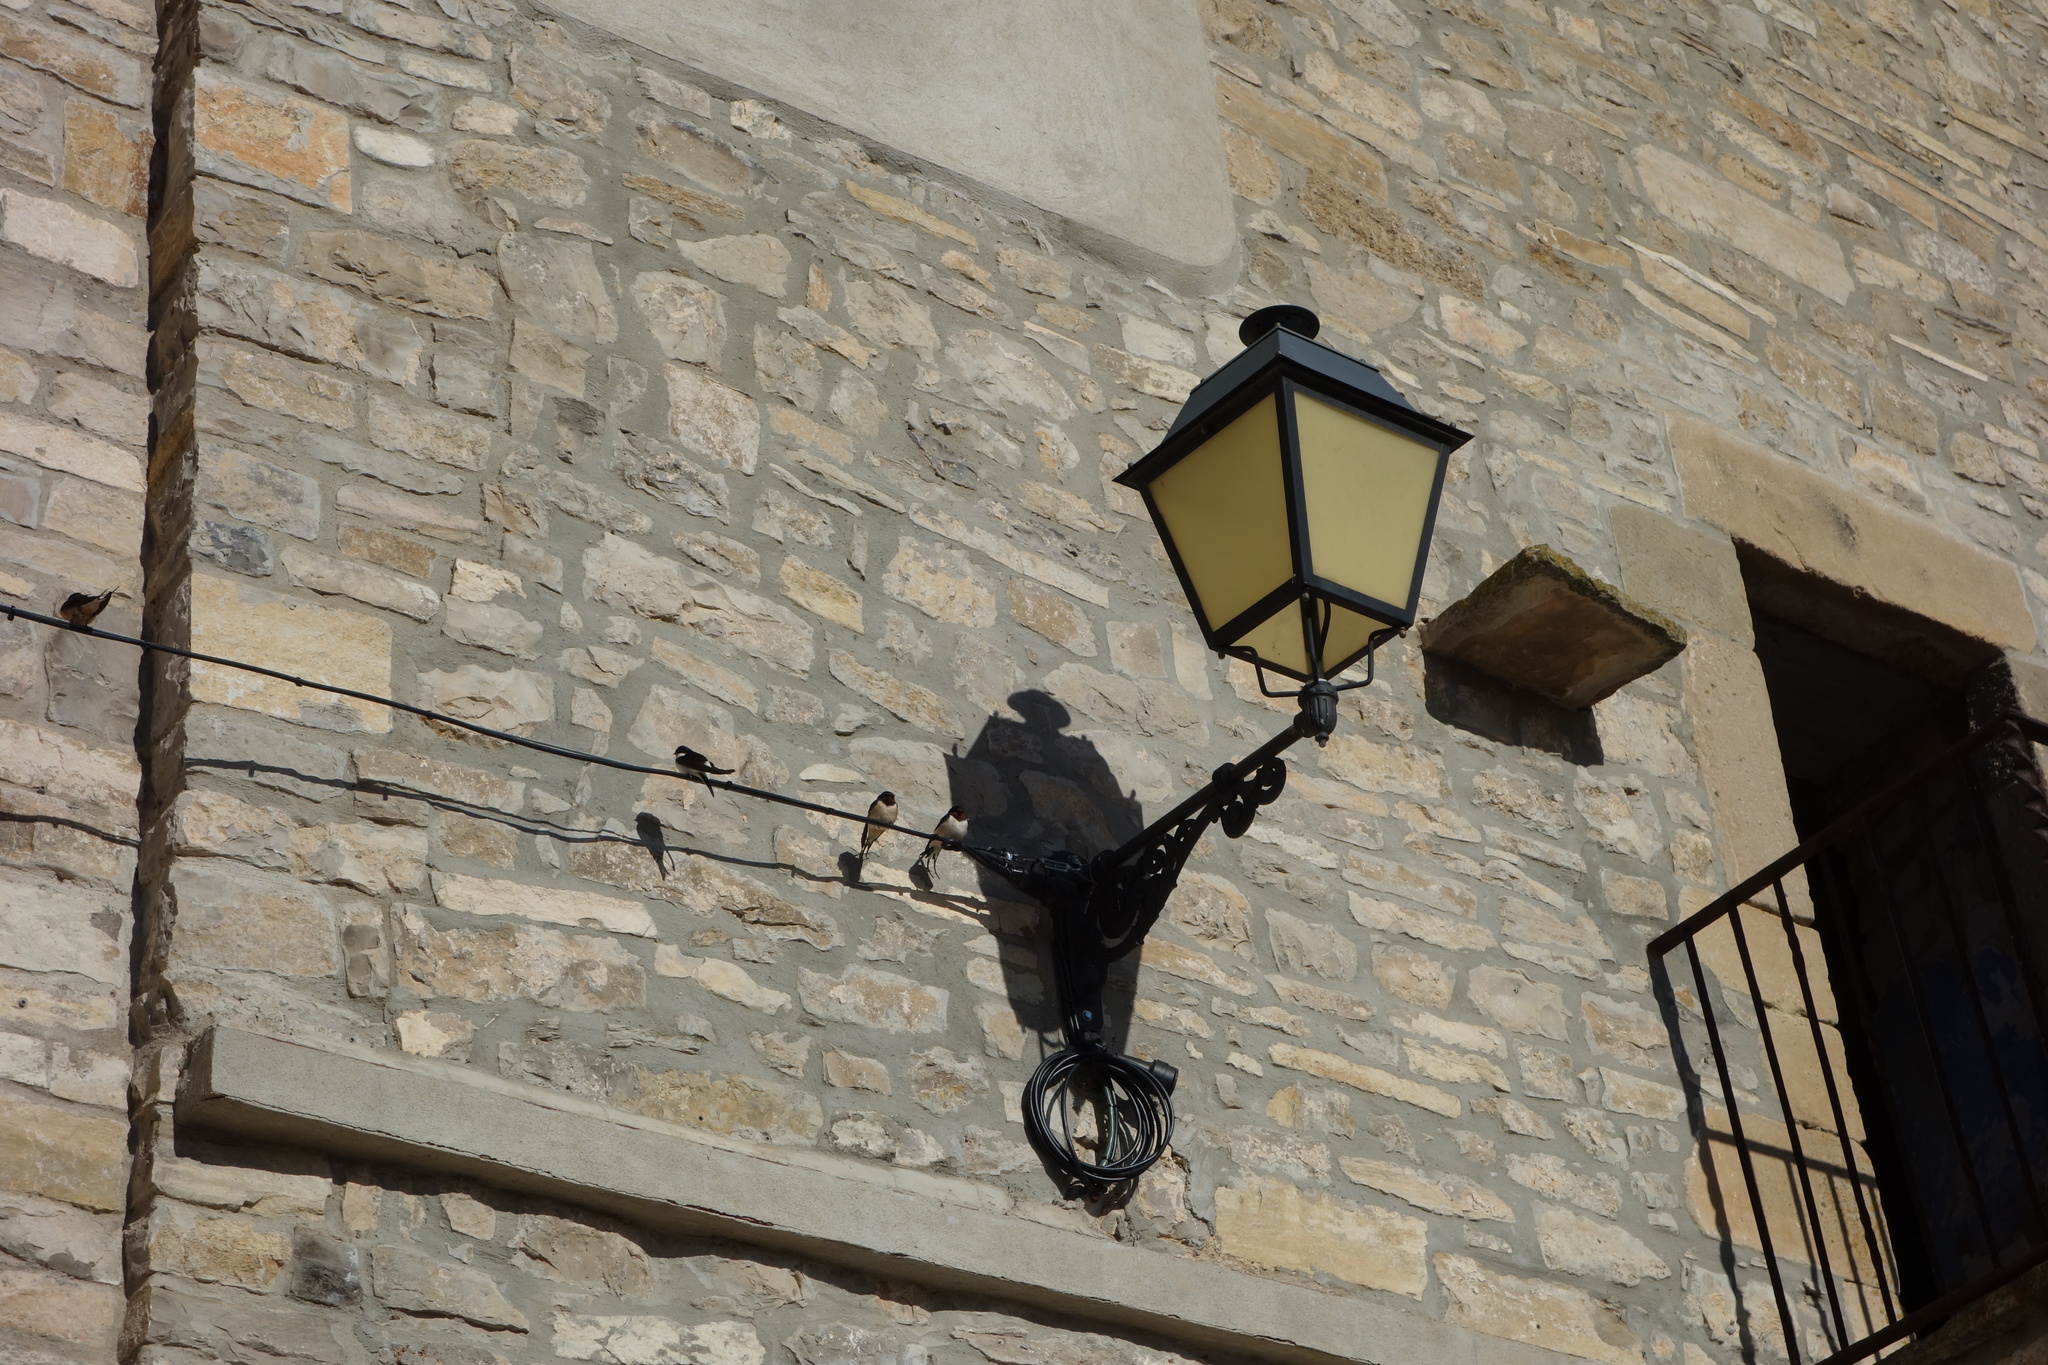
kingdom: Animalia
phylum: Chordata
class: Aves
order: Passeriformes
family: Hirundinidae
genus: Delichon
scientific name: Delichon urbicum
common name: Common house martin
